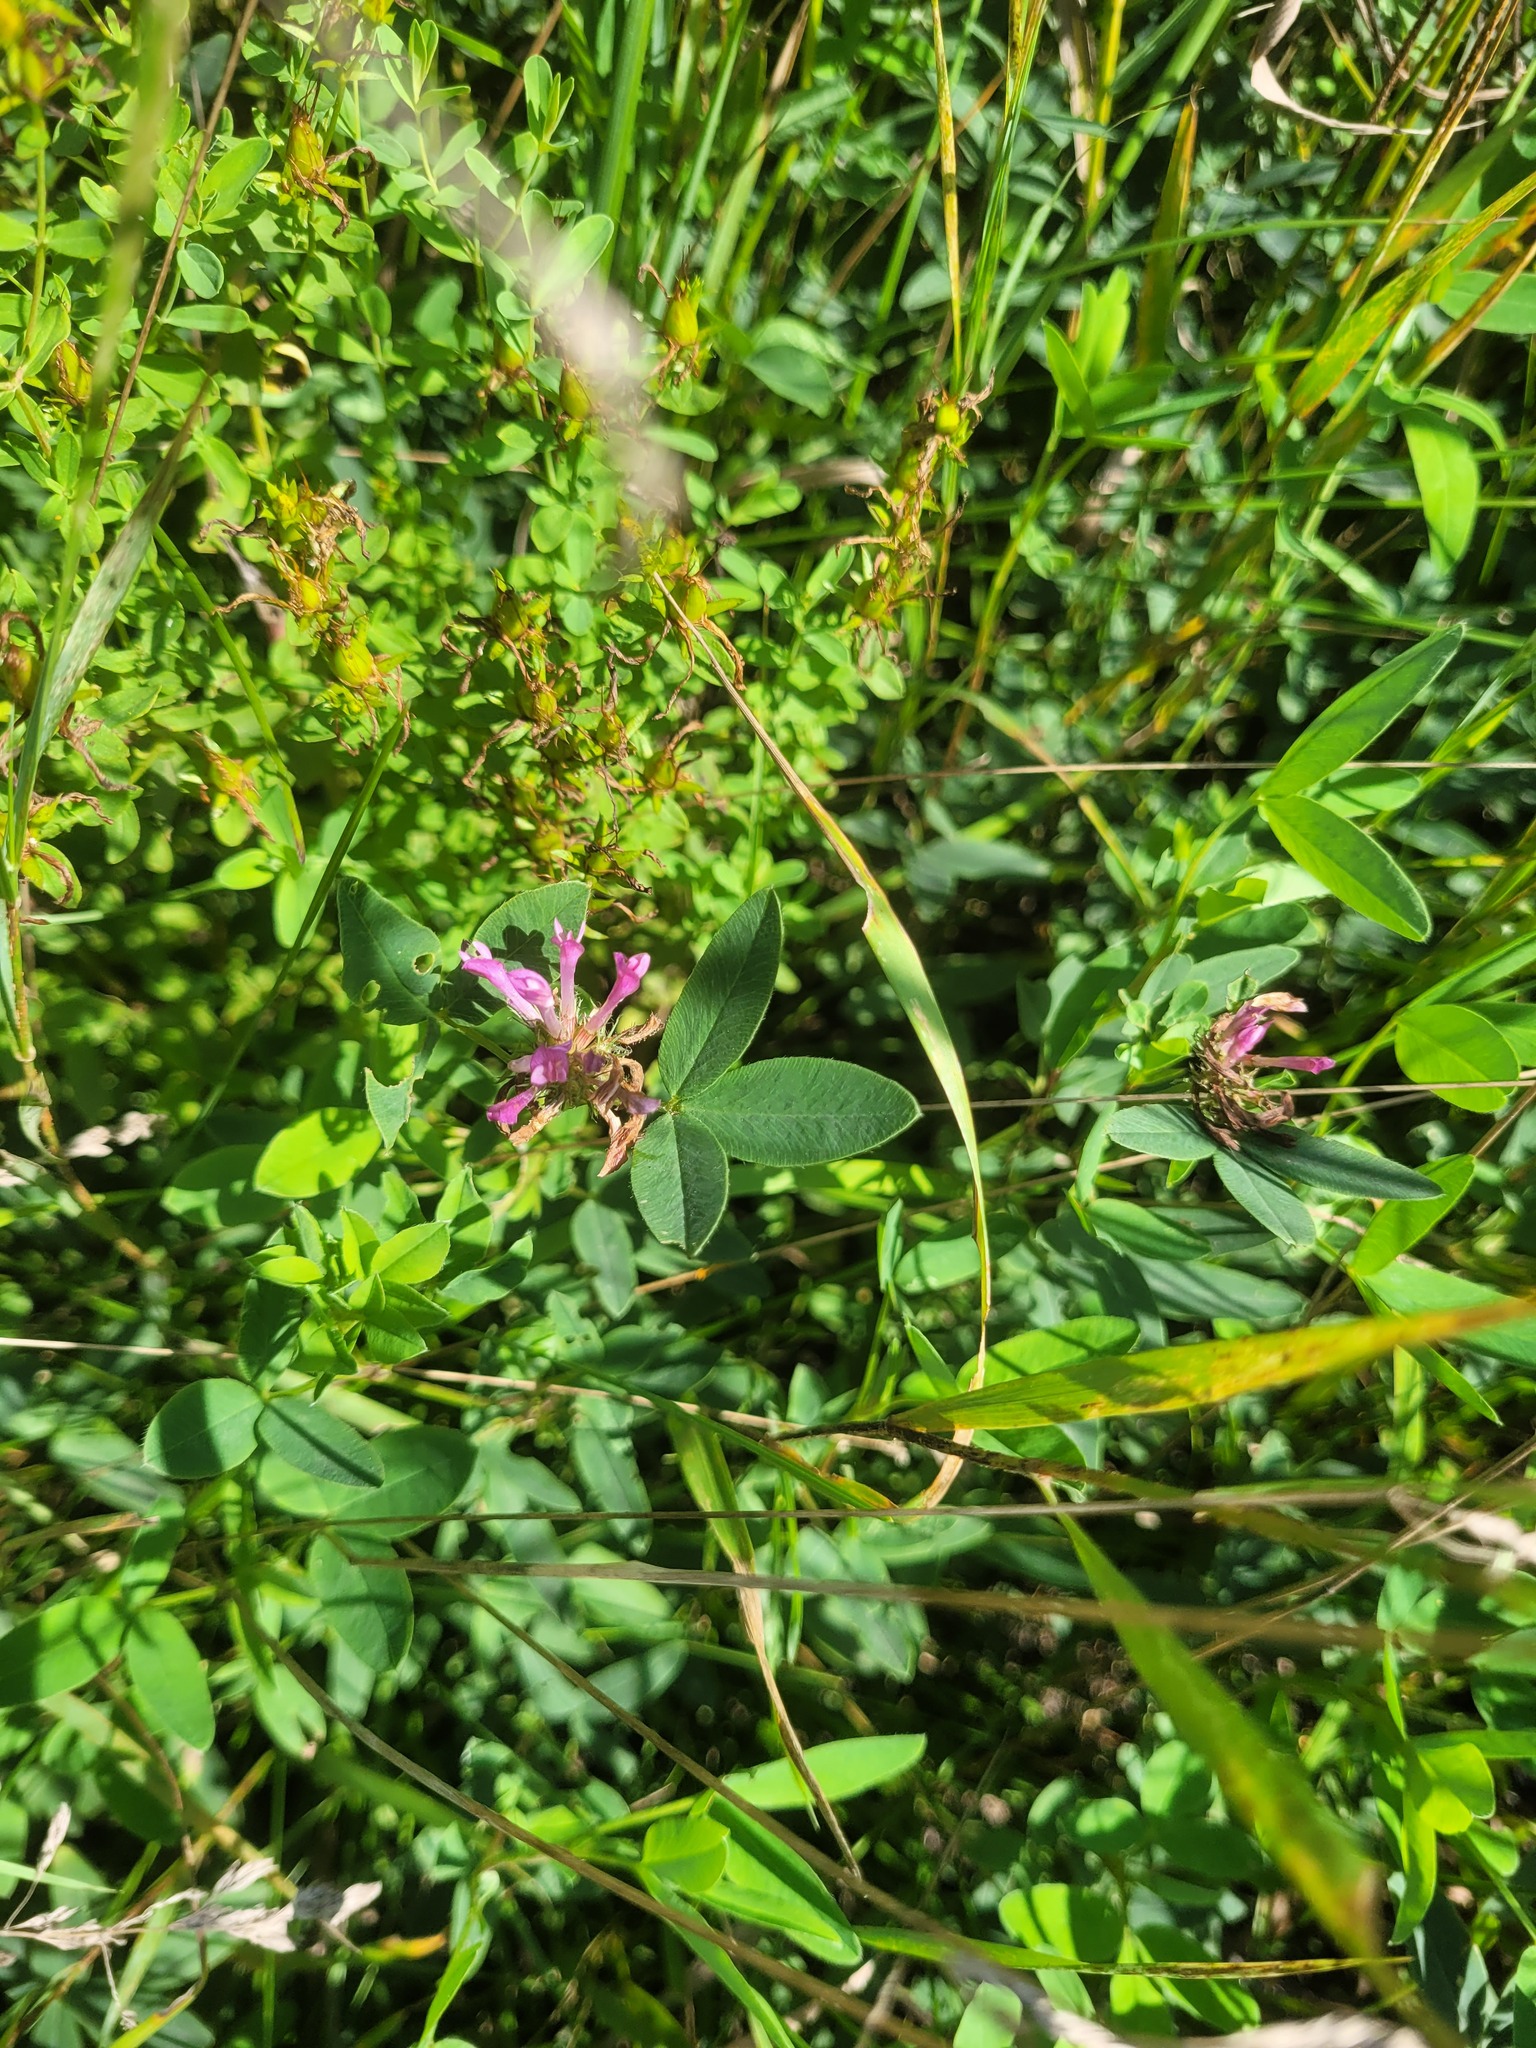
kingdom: Plantae
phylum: Tracheophyta
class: Magnoliopsida
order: Fabales
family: Fabaceae
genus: Trifolium
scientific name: Trifolium medium
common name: Zigzag clover
